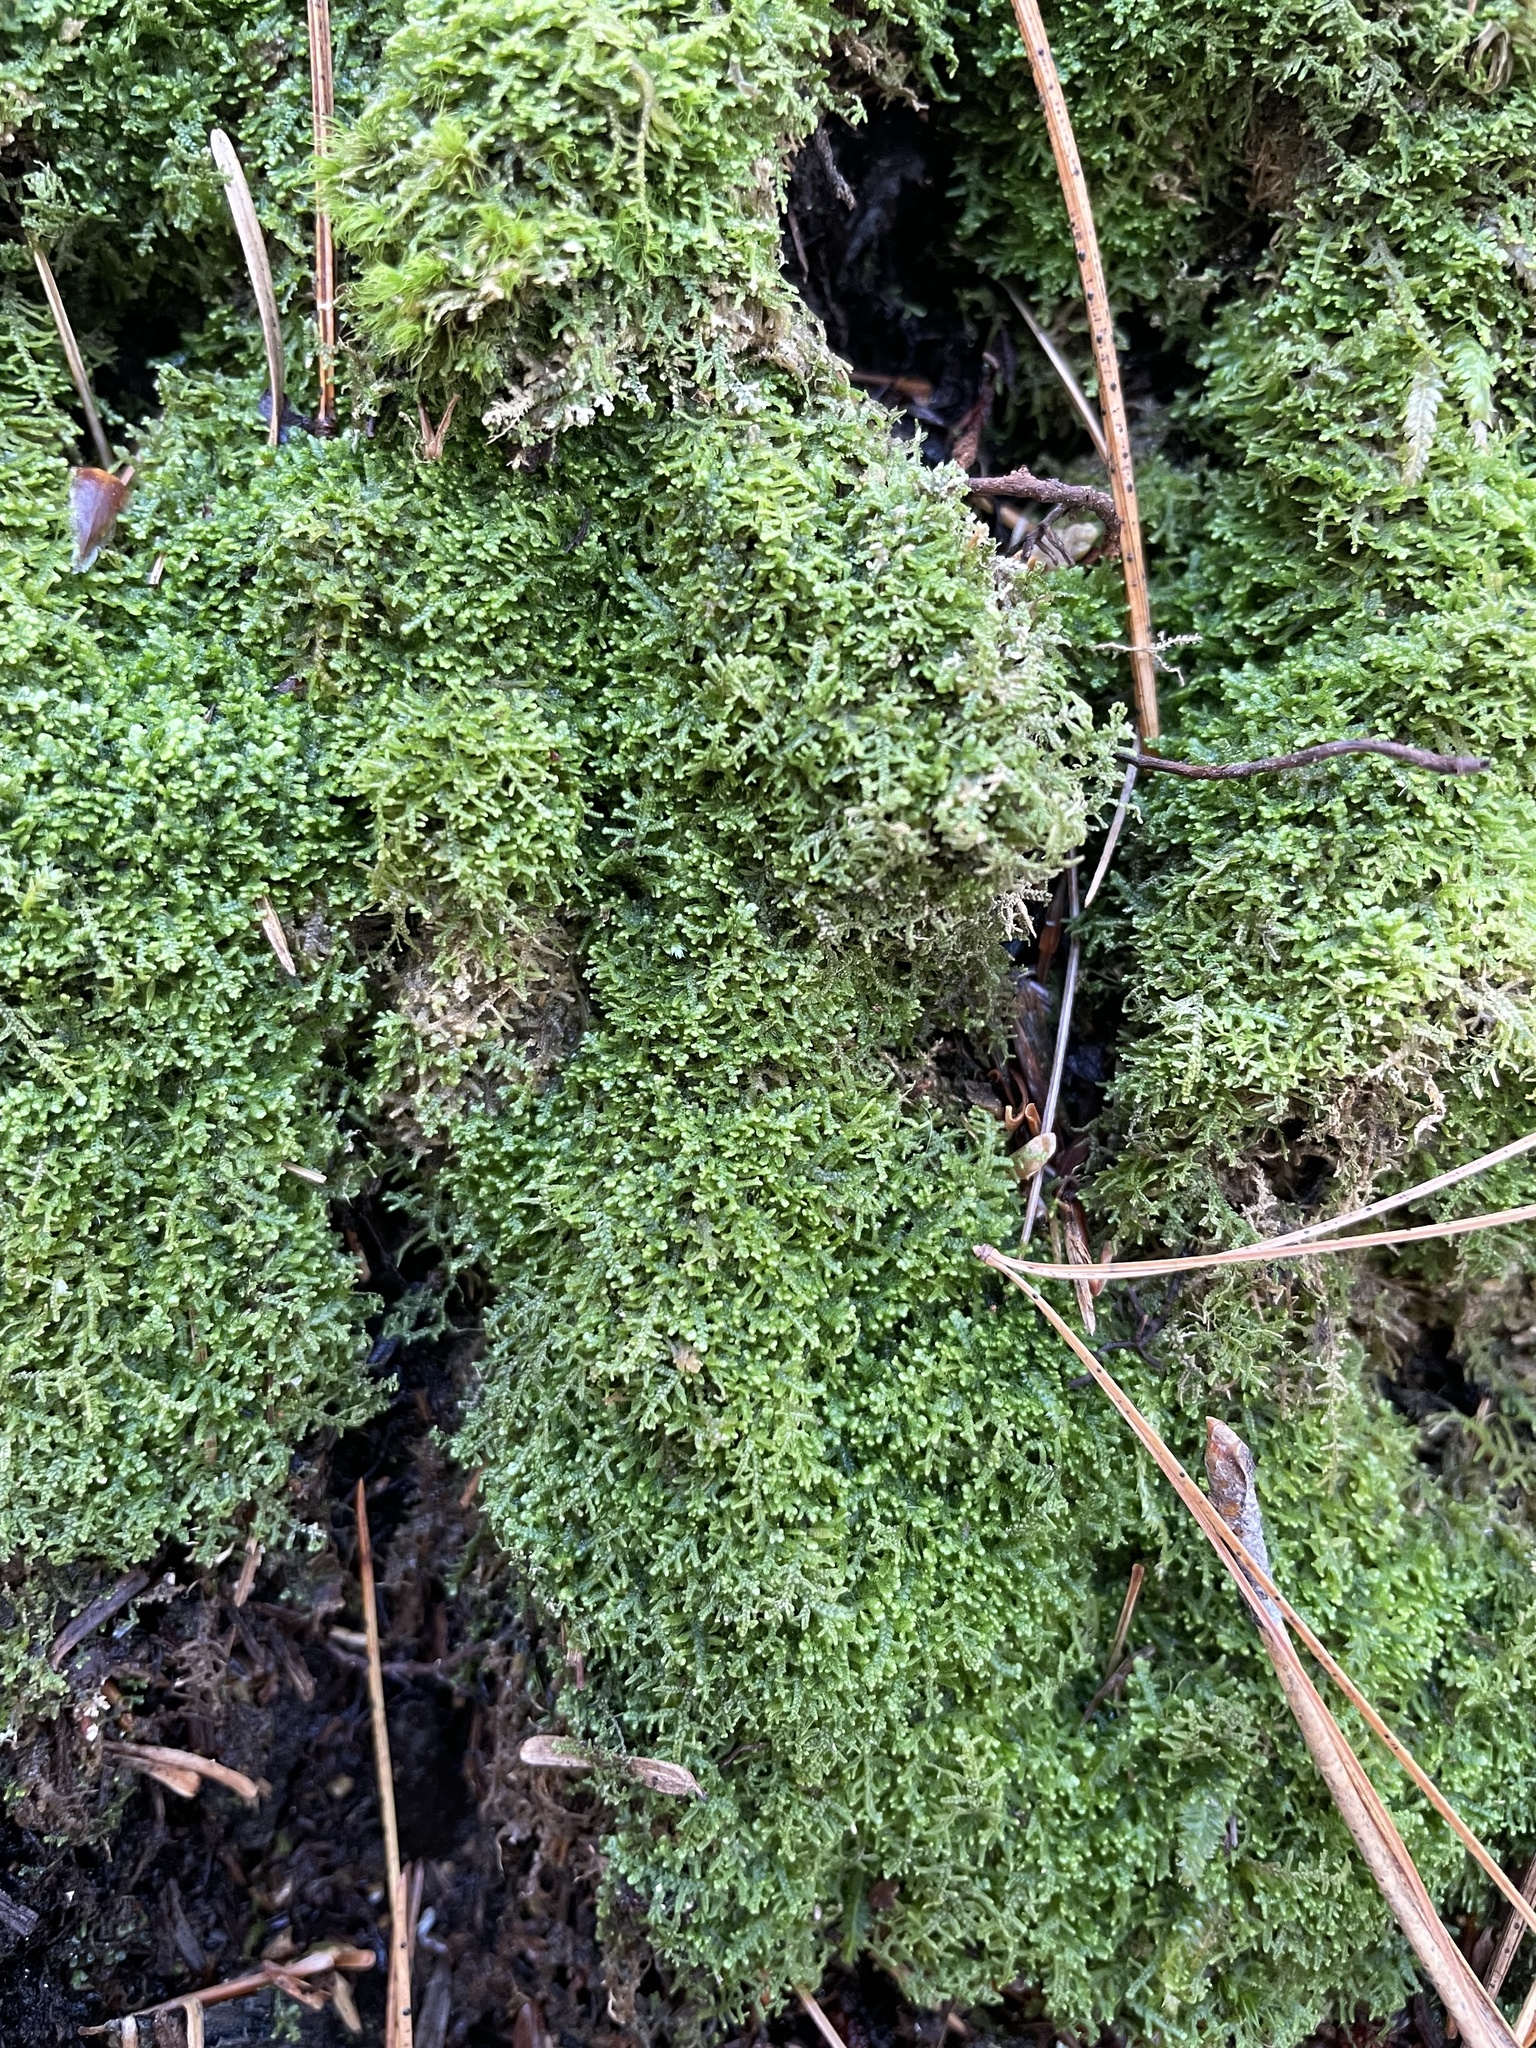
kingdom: Plantae
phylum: Marchantiophyta
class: Jungermanniopsida
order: Jungermanniales
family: Lepidoziaceae
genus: Lepidozia
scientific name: Lepidozia reptans
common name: Creeping fingerwort
